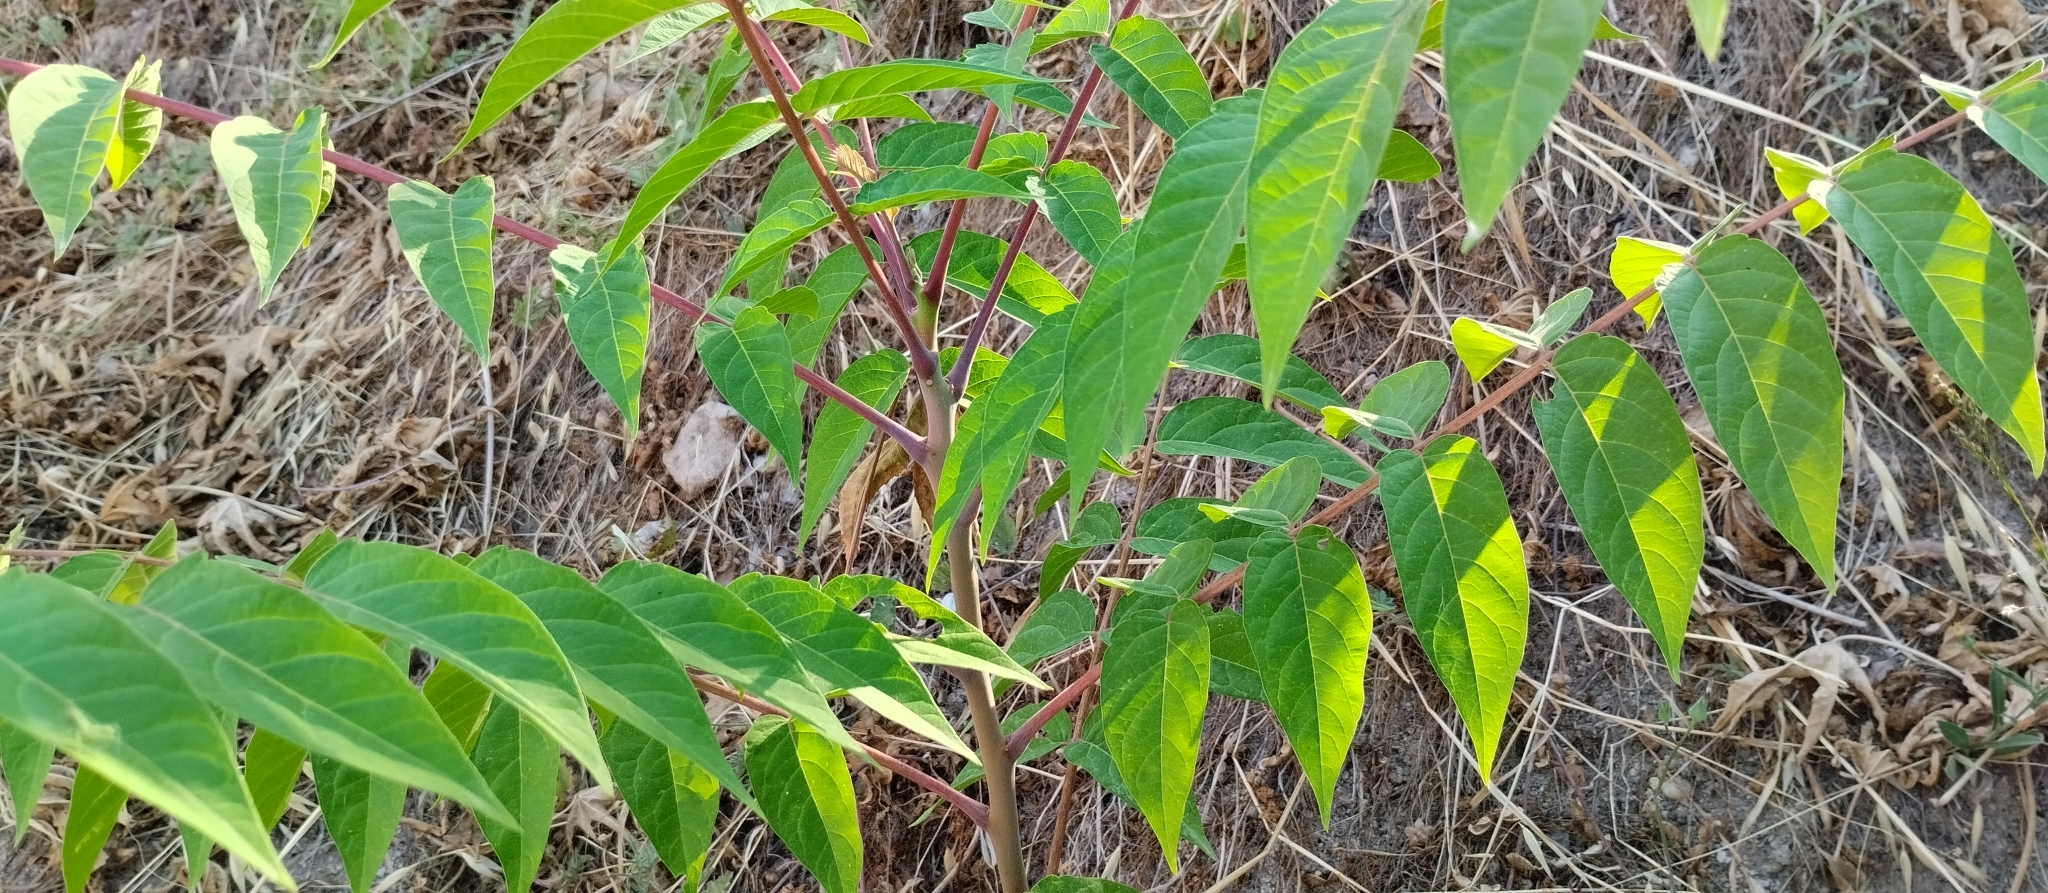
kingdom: Plantae
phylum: Tracheophyta
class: Magnoliopsida
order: Sapindales
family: Simaroubaceae
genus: Ailanthus
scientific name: Ailanthus altissima
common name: Tree-of-heaven
